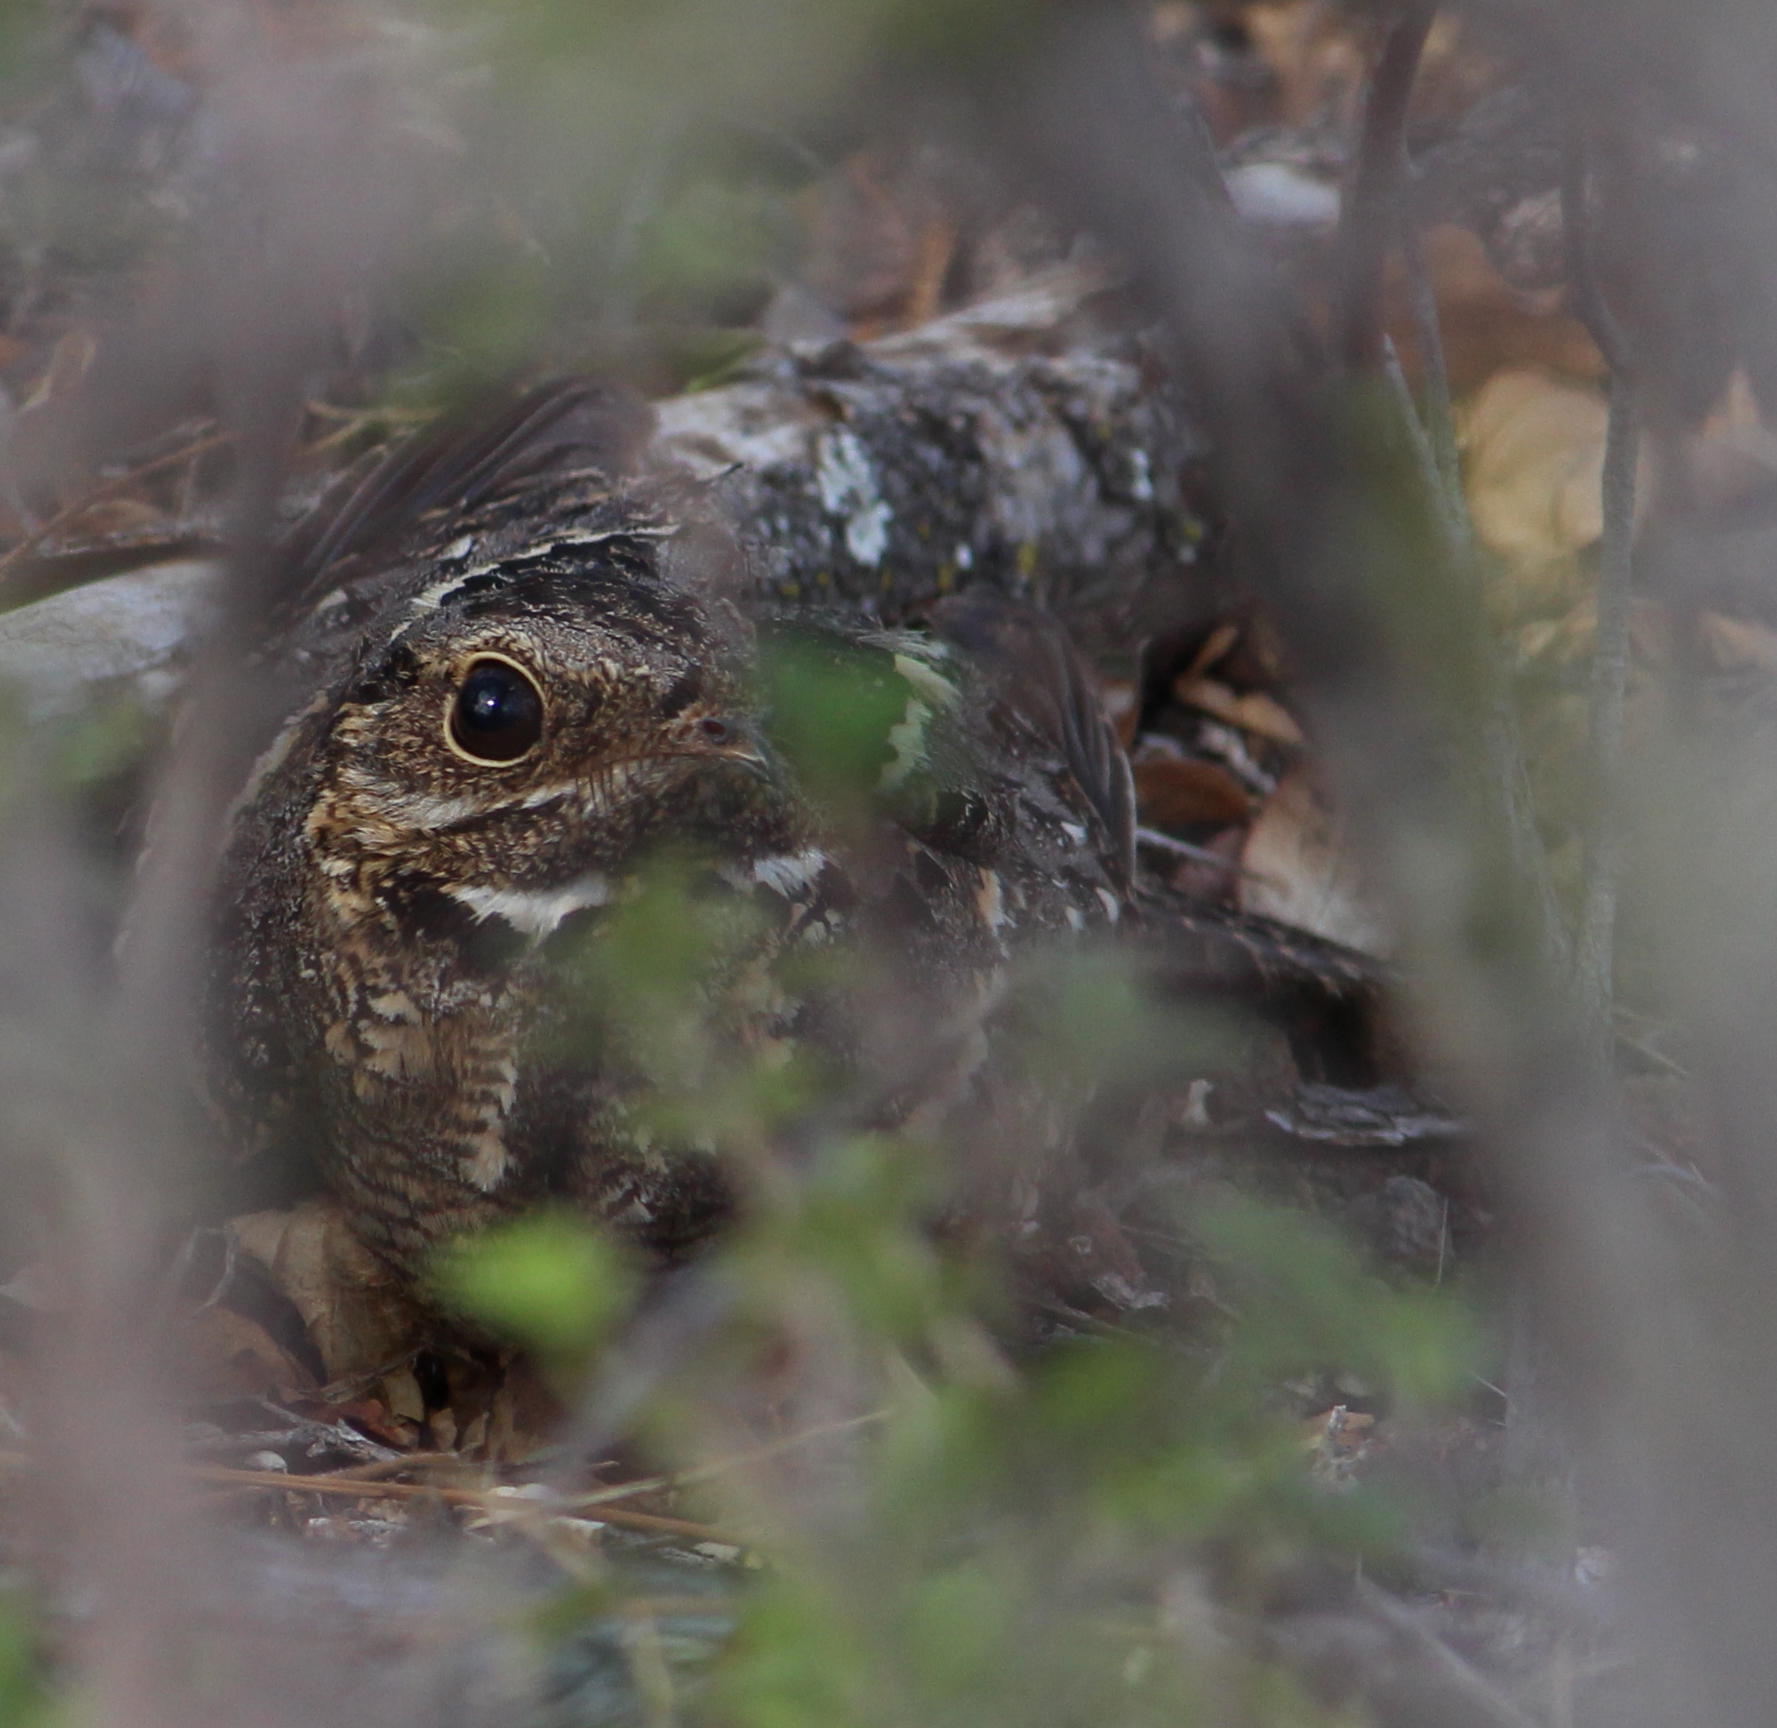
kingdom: Animalia
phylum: Chordata
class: Aves
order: Caprimulgiformes
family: Caprimulgidae
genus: Caprimulgus
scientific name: Caprimulgus fossii
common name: Square-tailed nightjar
